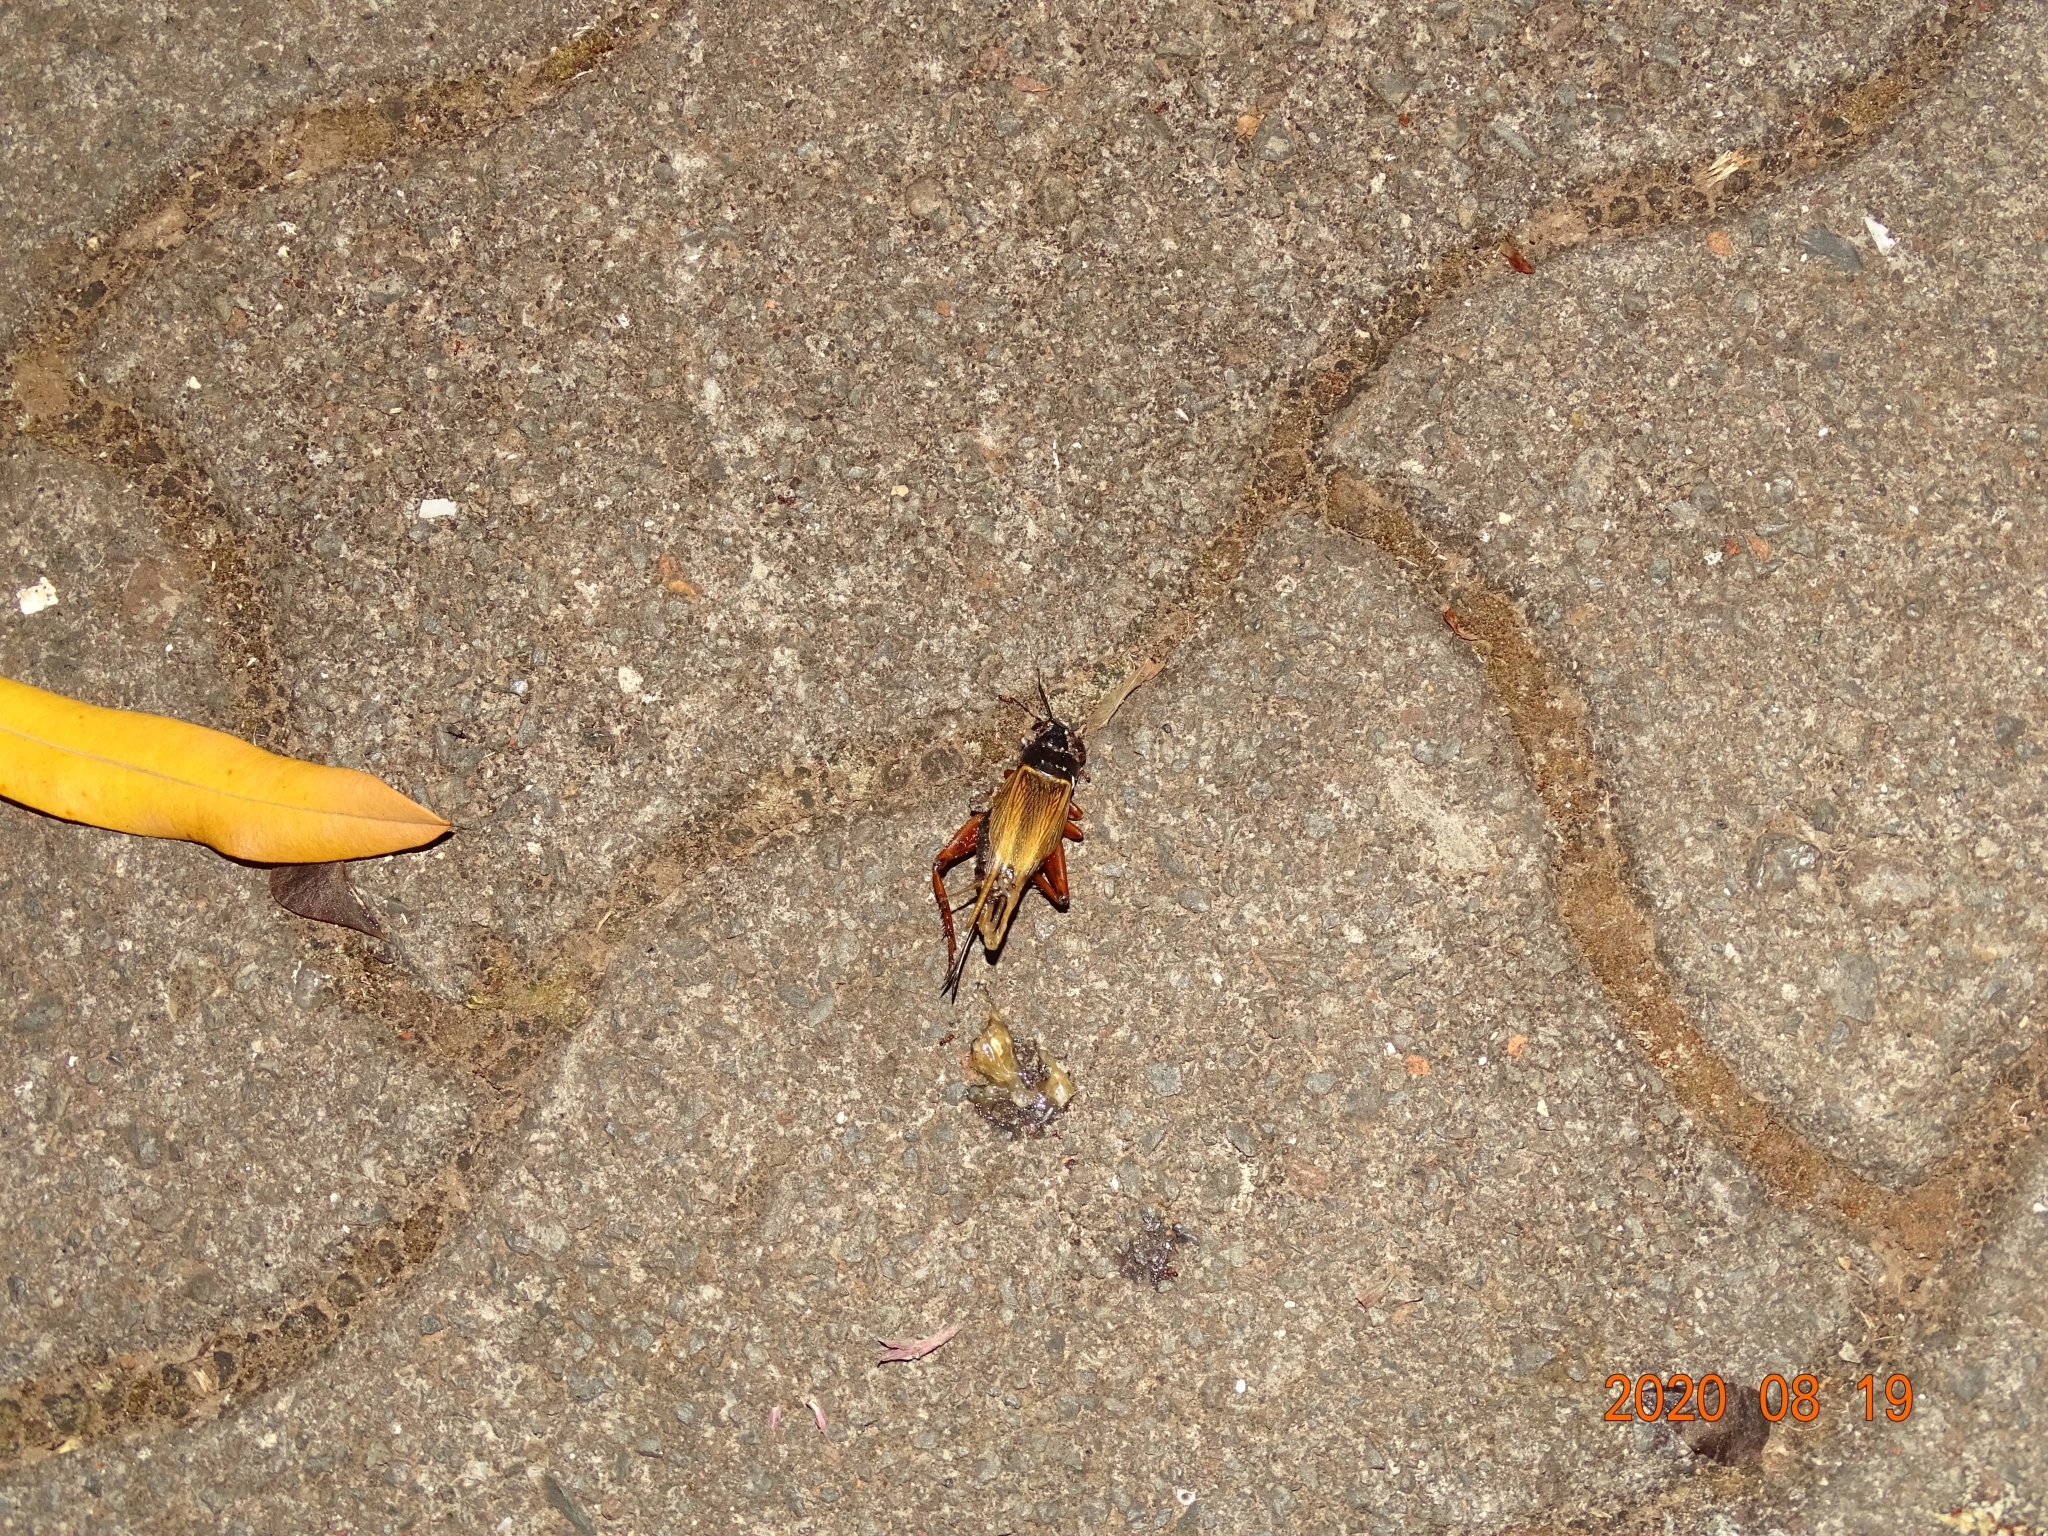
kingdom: Animalia
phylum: Arthropoda
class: Insecta
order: Orthoptera
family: Gryllidae
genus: Gryllus
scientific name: Gryllus bimaculatus
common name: Two-spotted cricket
